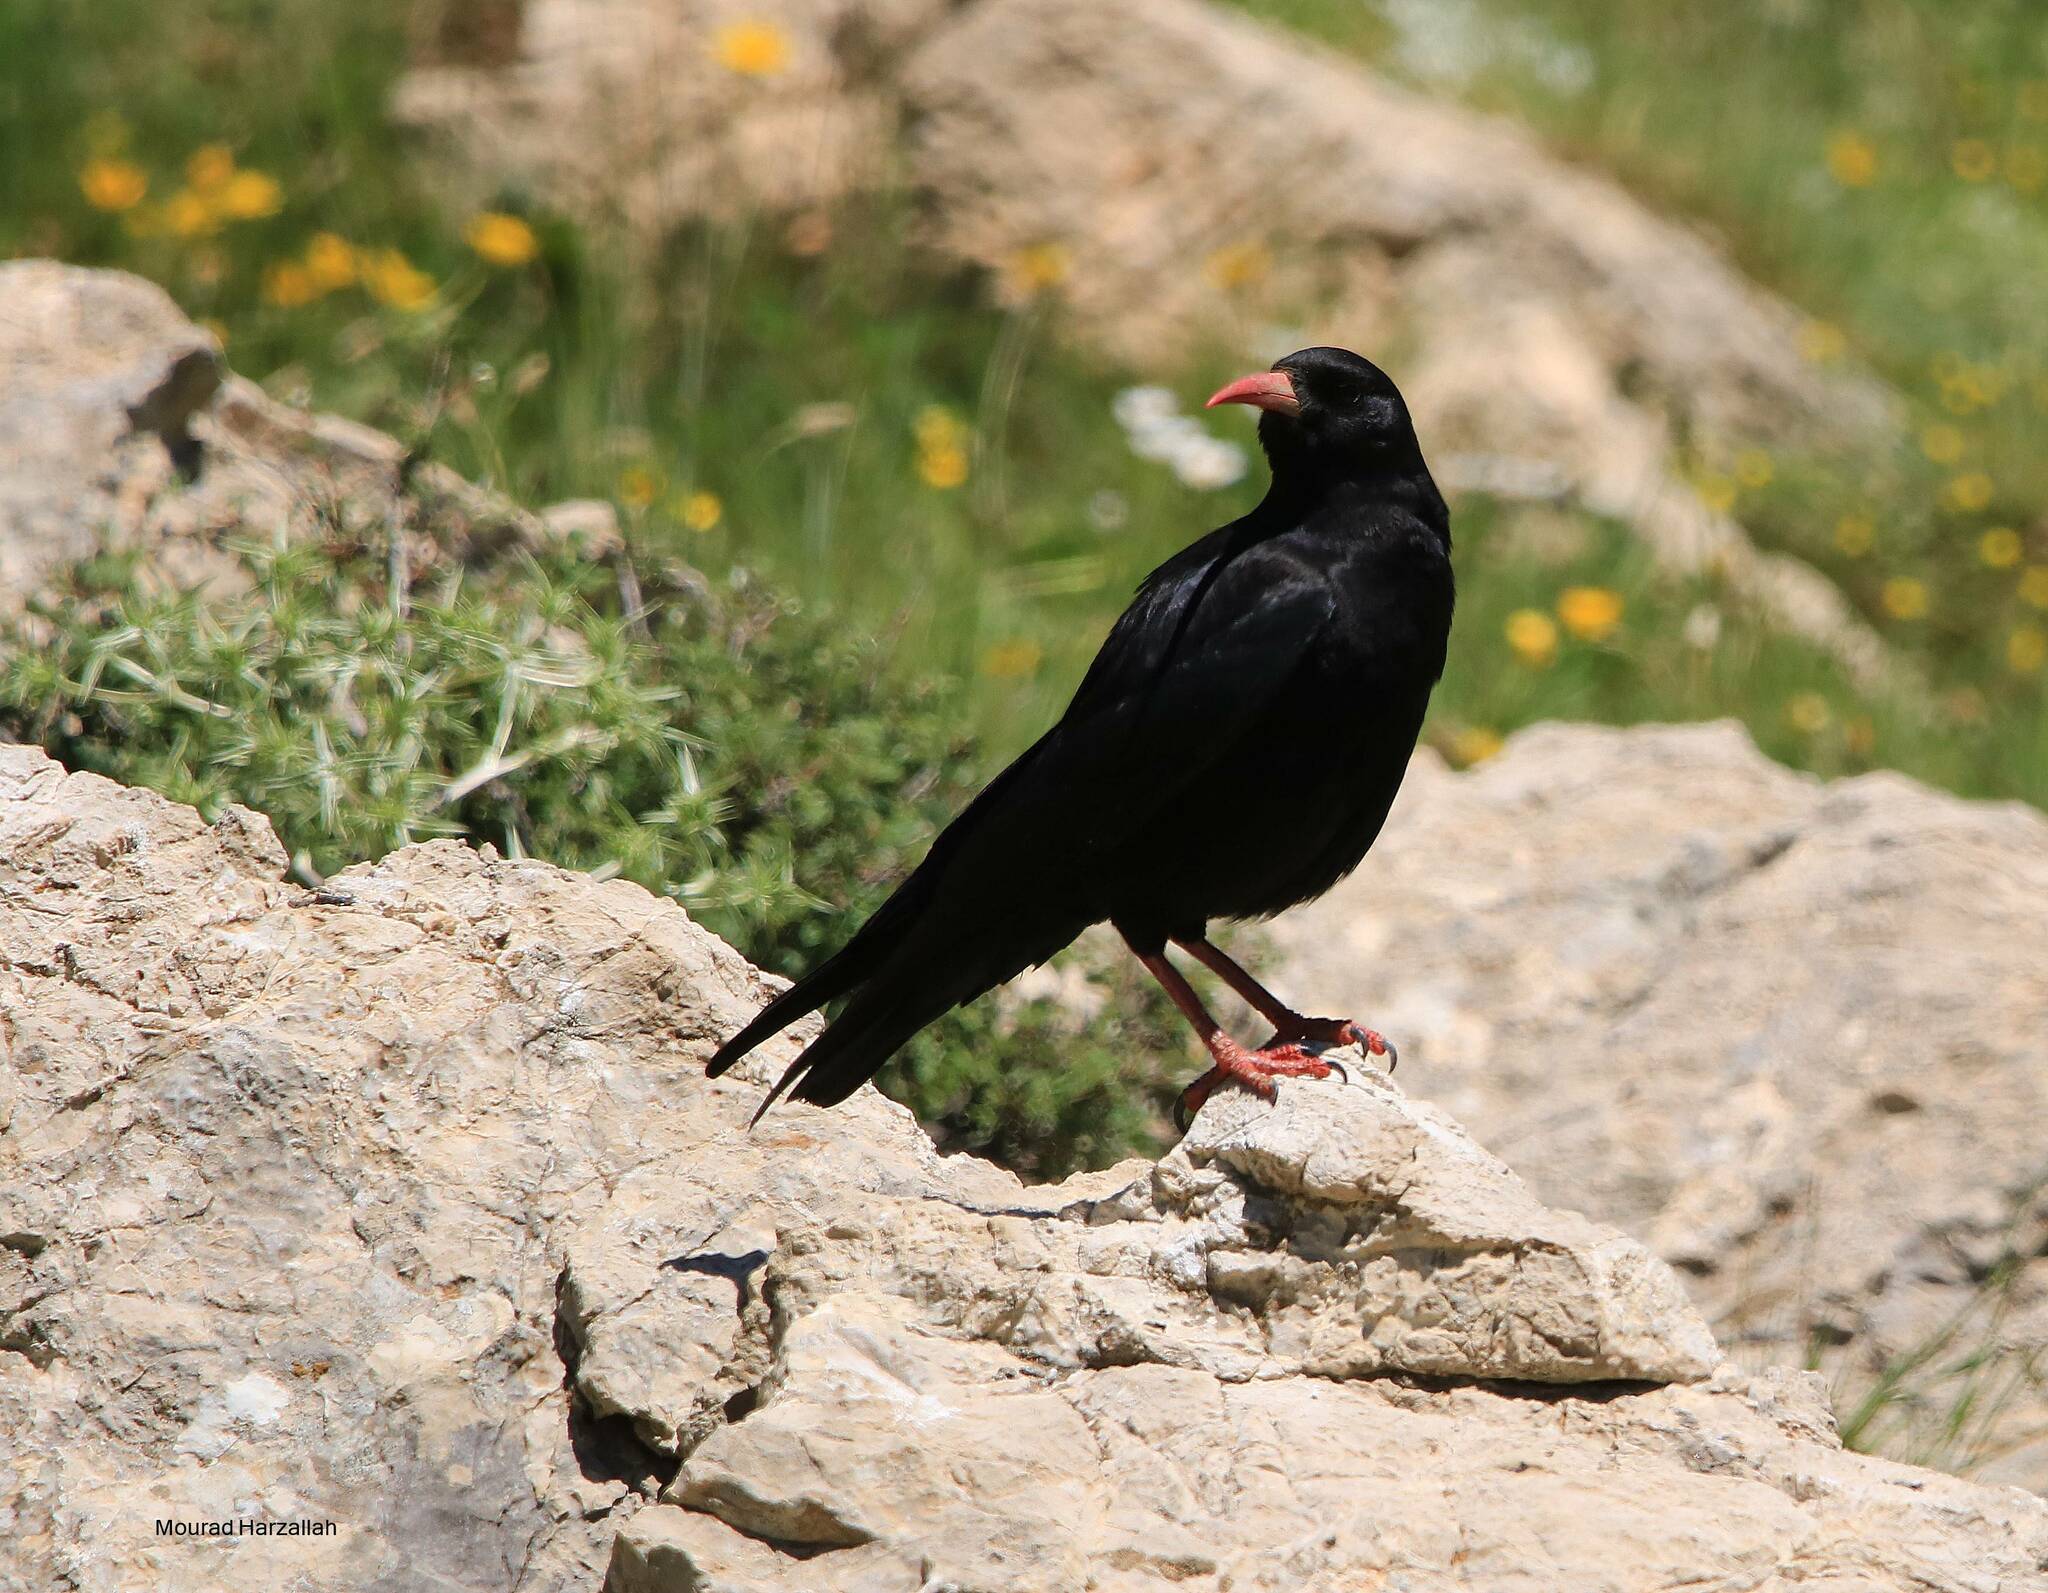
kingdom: Animalia
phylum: Chordata
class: Aves
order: Passeriformes
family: Corvidae
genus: Pyrrhocorax
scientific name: Pyrrhocorax pyrrhocorax
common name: Red-billed chough
